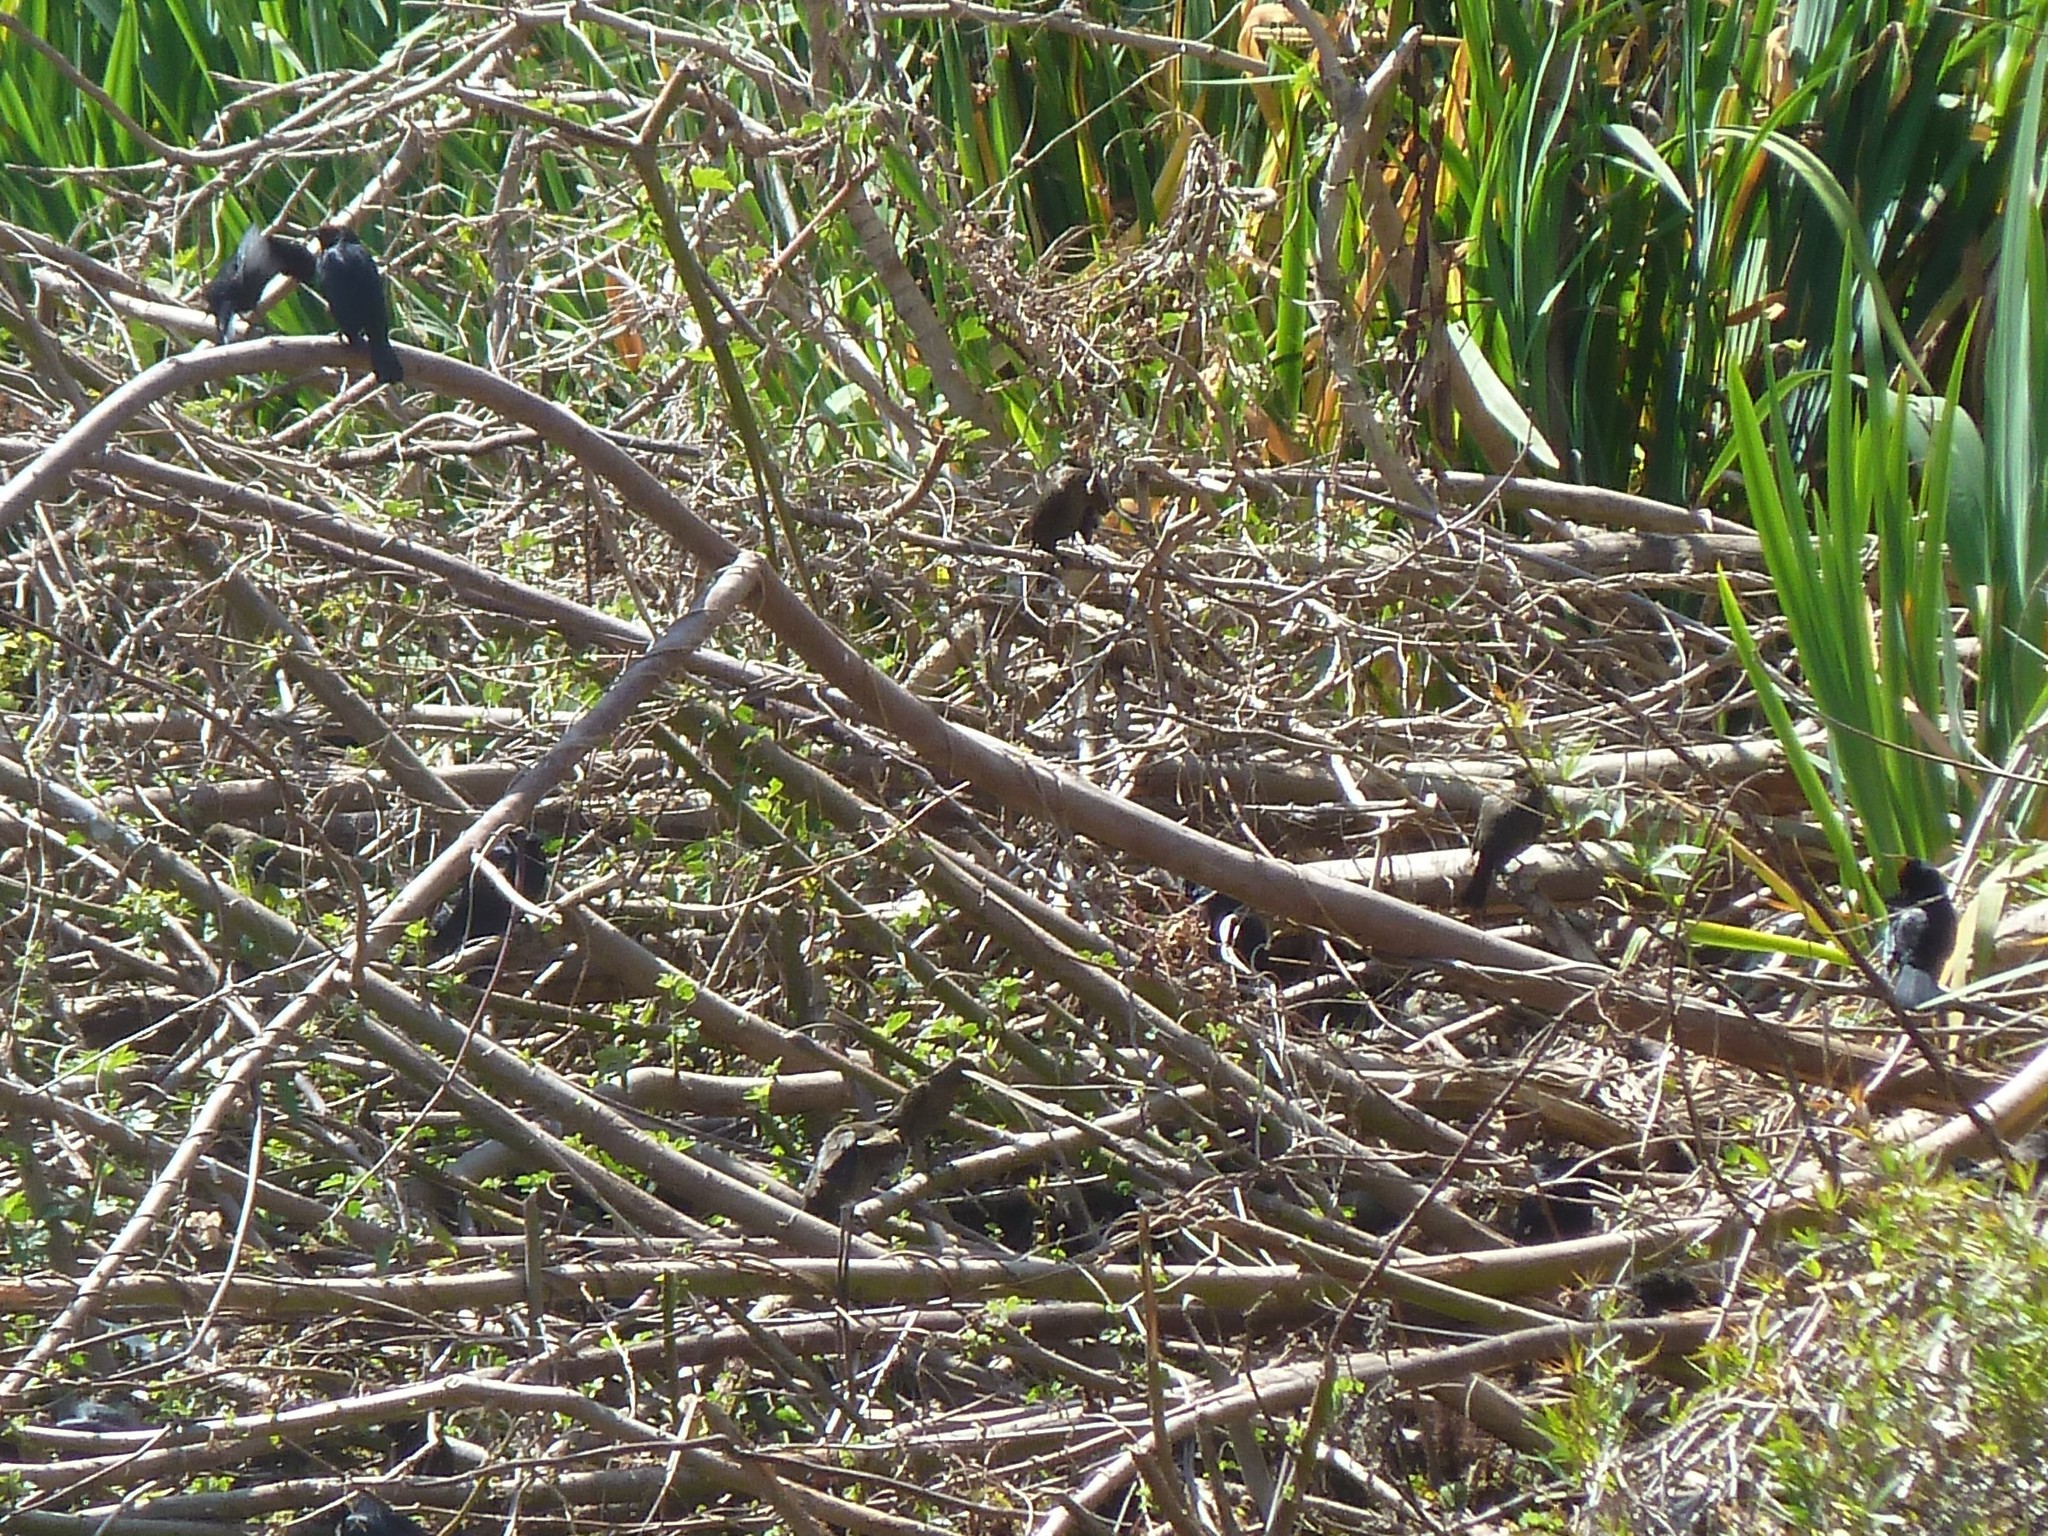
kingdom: Animalia
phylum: Chordata
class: Aves
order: Passeriformes
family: Icteridae
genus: Chrysomus
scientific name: Chrysomus ruficapillus
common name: Chestnut-capped blackbird
